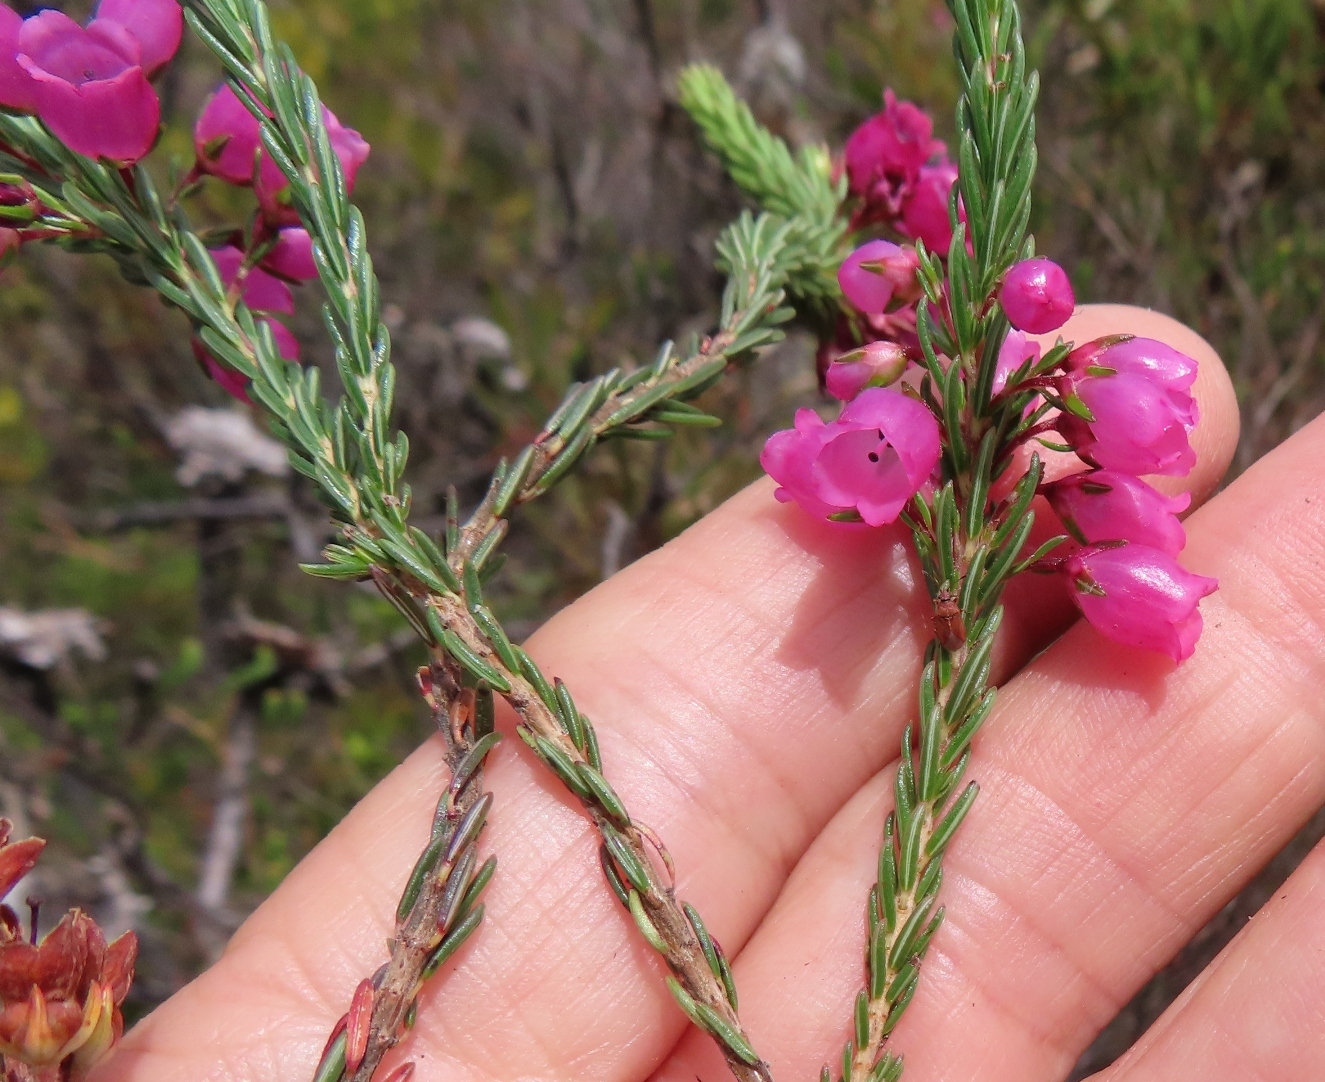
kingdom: Plantae
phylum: Tracheophyta
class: Magnoliopsida
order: Ericales
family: Ericaceae
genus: Erica
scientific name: Erica axilliflora
